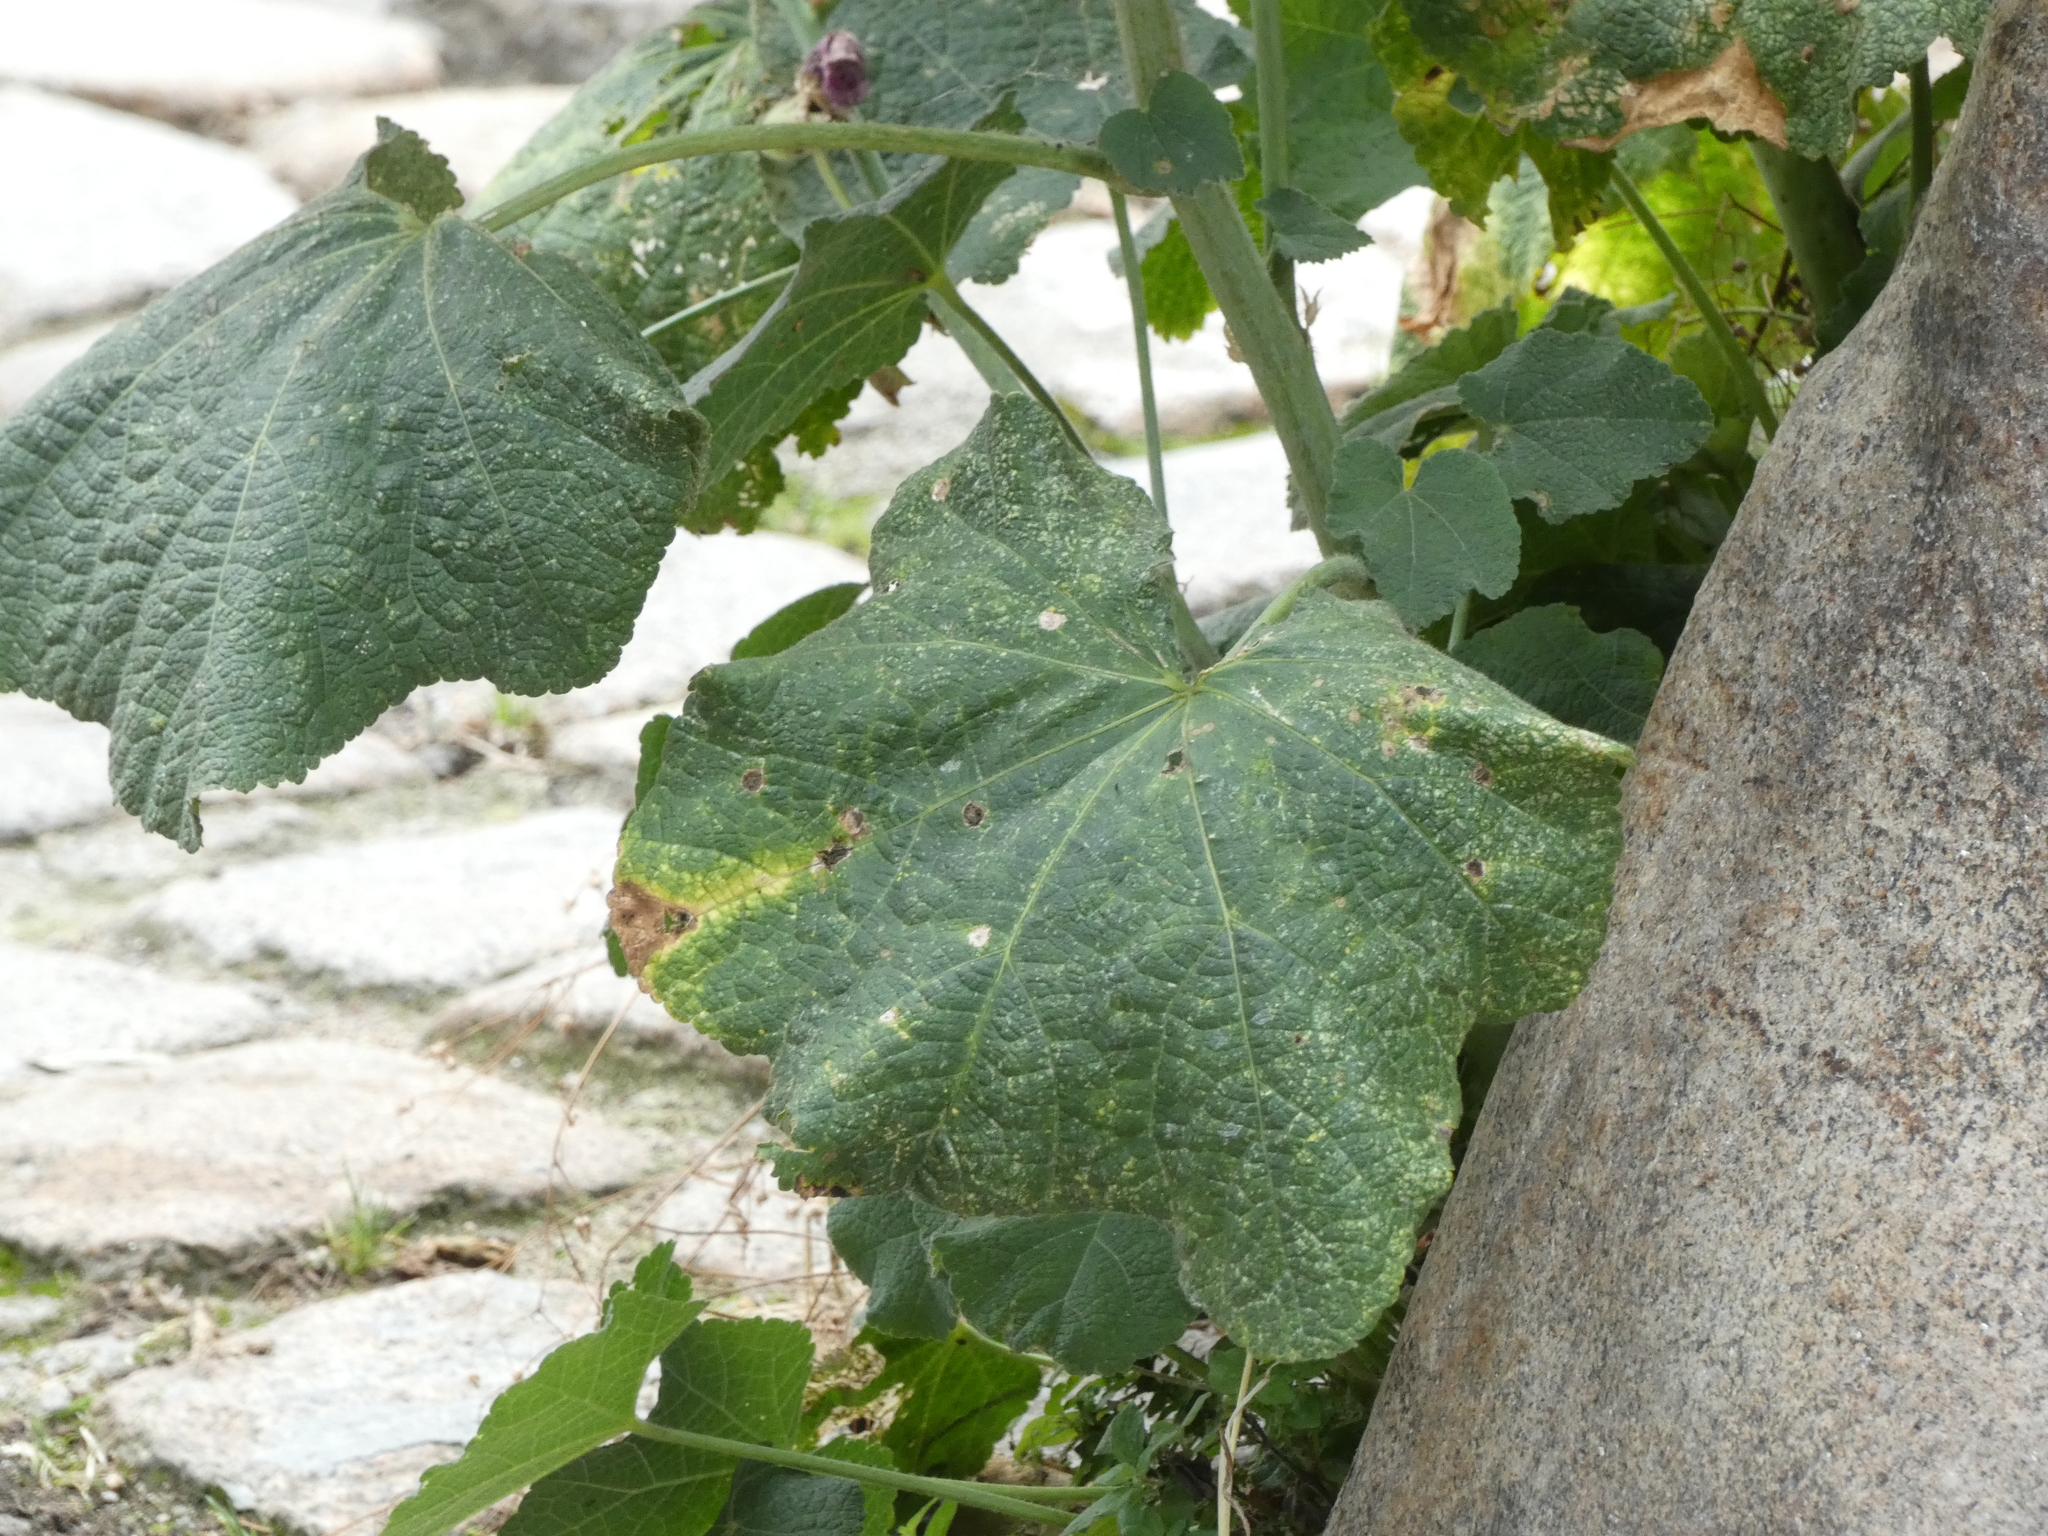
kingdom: Plantae
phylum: Tracheophyta
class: Magnoliopsida
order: Malvales
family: Malvaceae
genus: Alcea
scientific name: Alcea rosea
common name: Hollyhock
